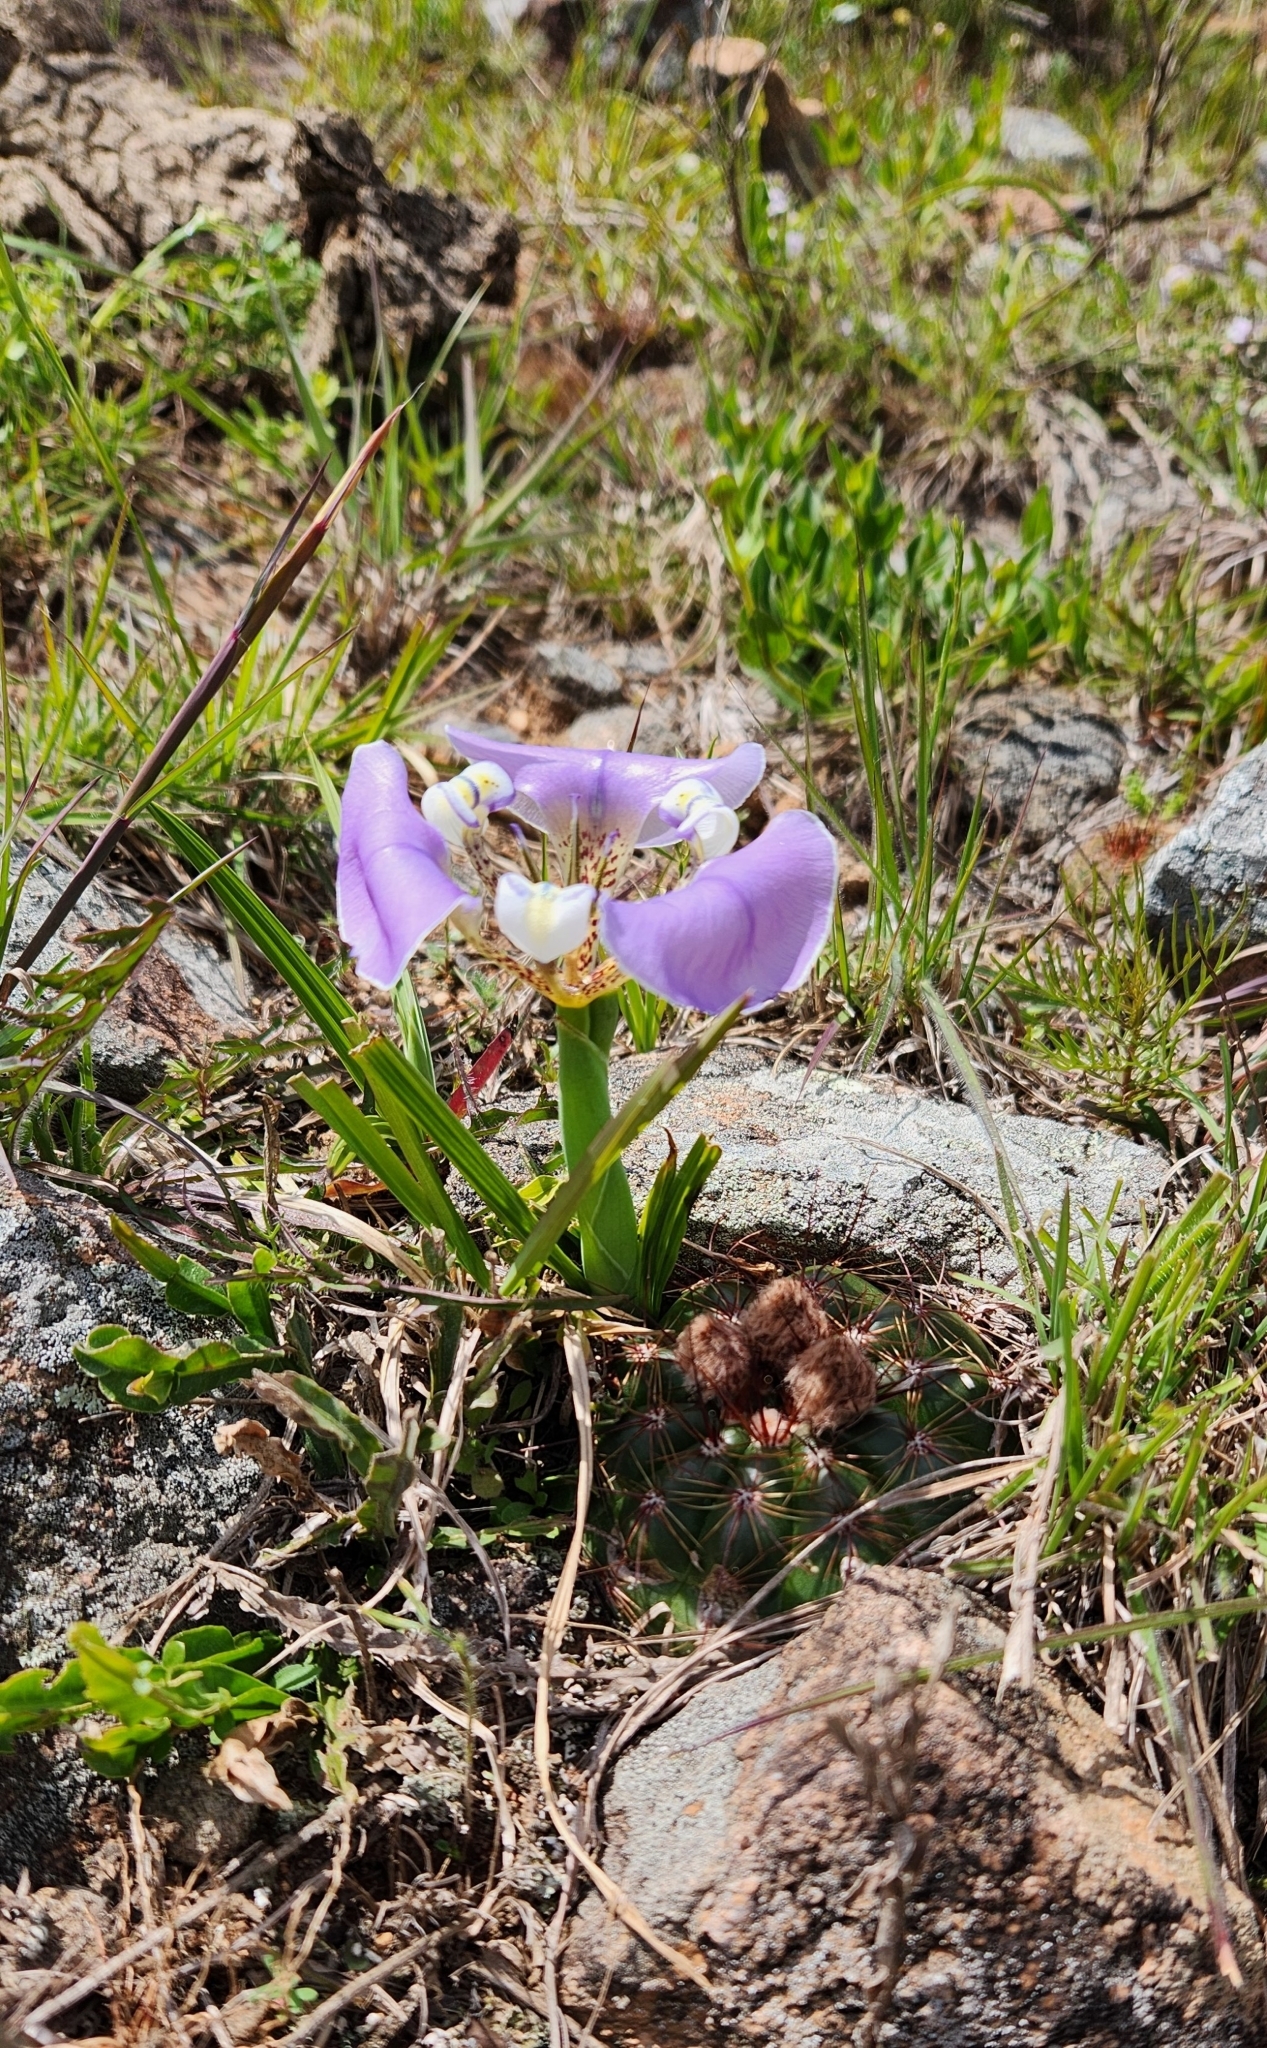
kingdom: Plantae
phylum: Tracheophyta
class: Liliopsida
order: Asparagales
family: Iridaceae
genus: Cypella
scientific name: Cypella unguiculata
